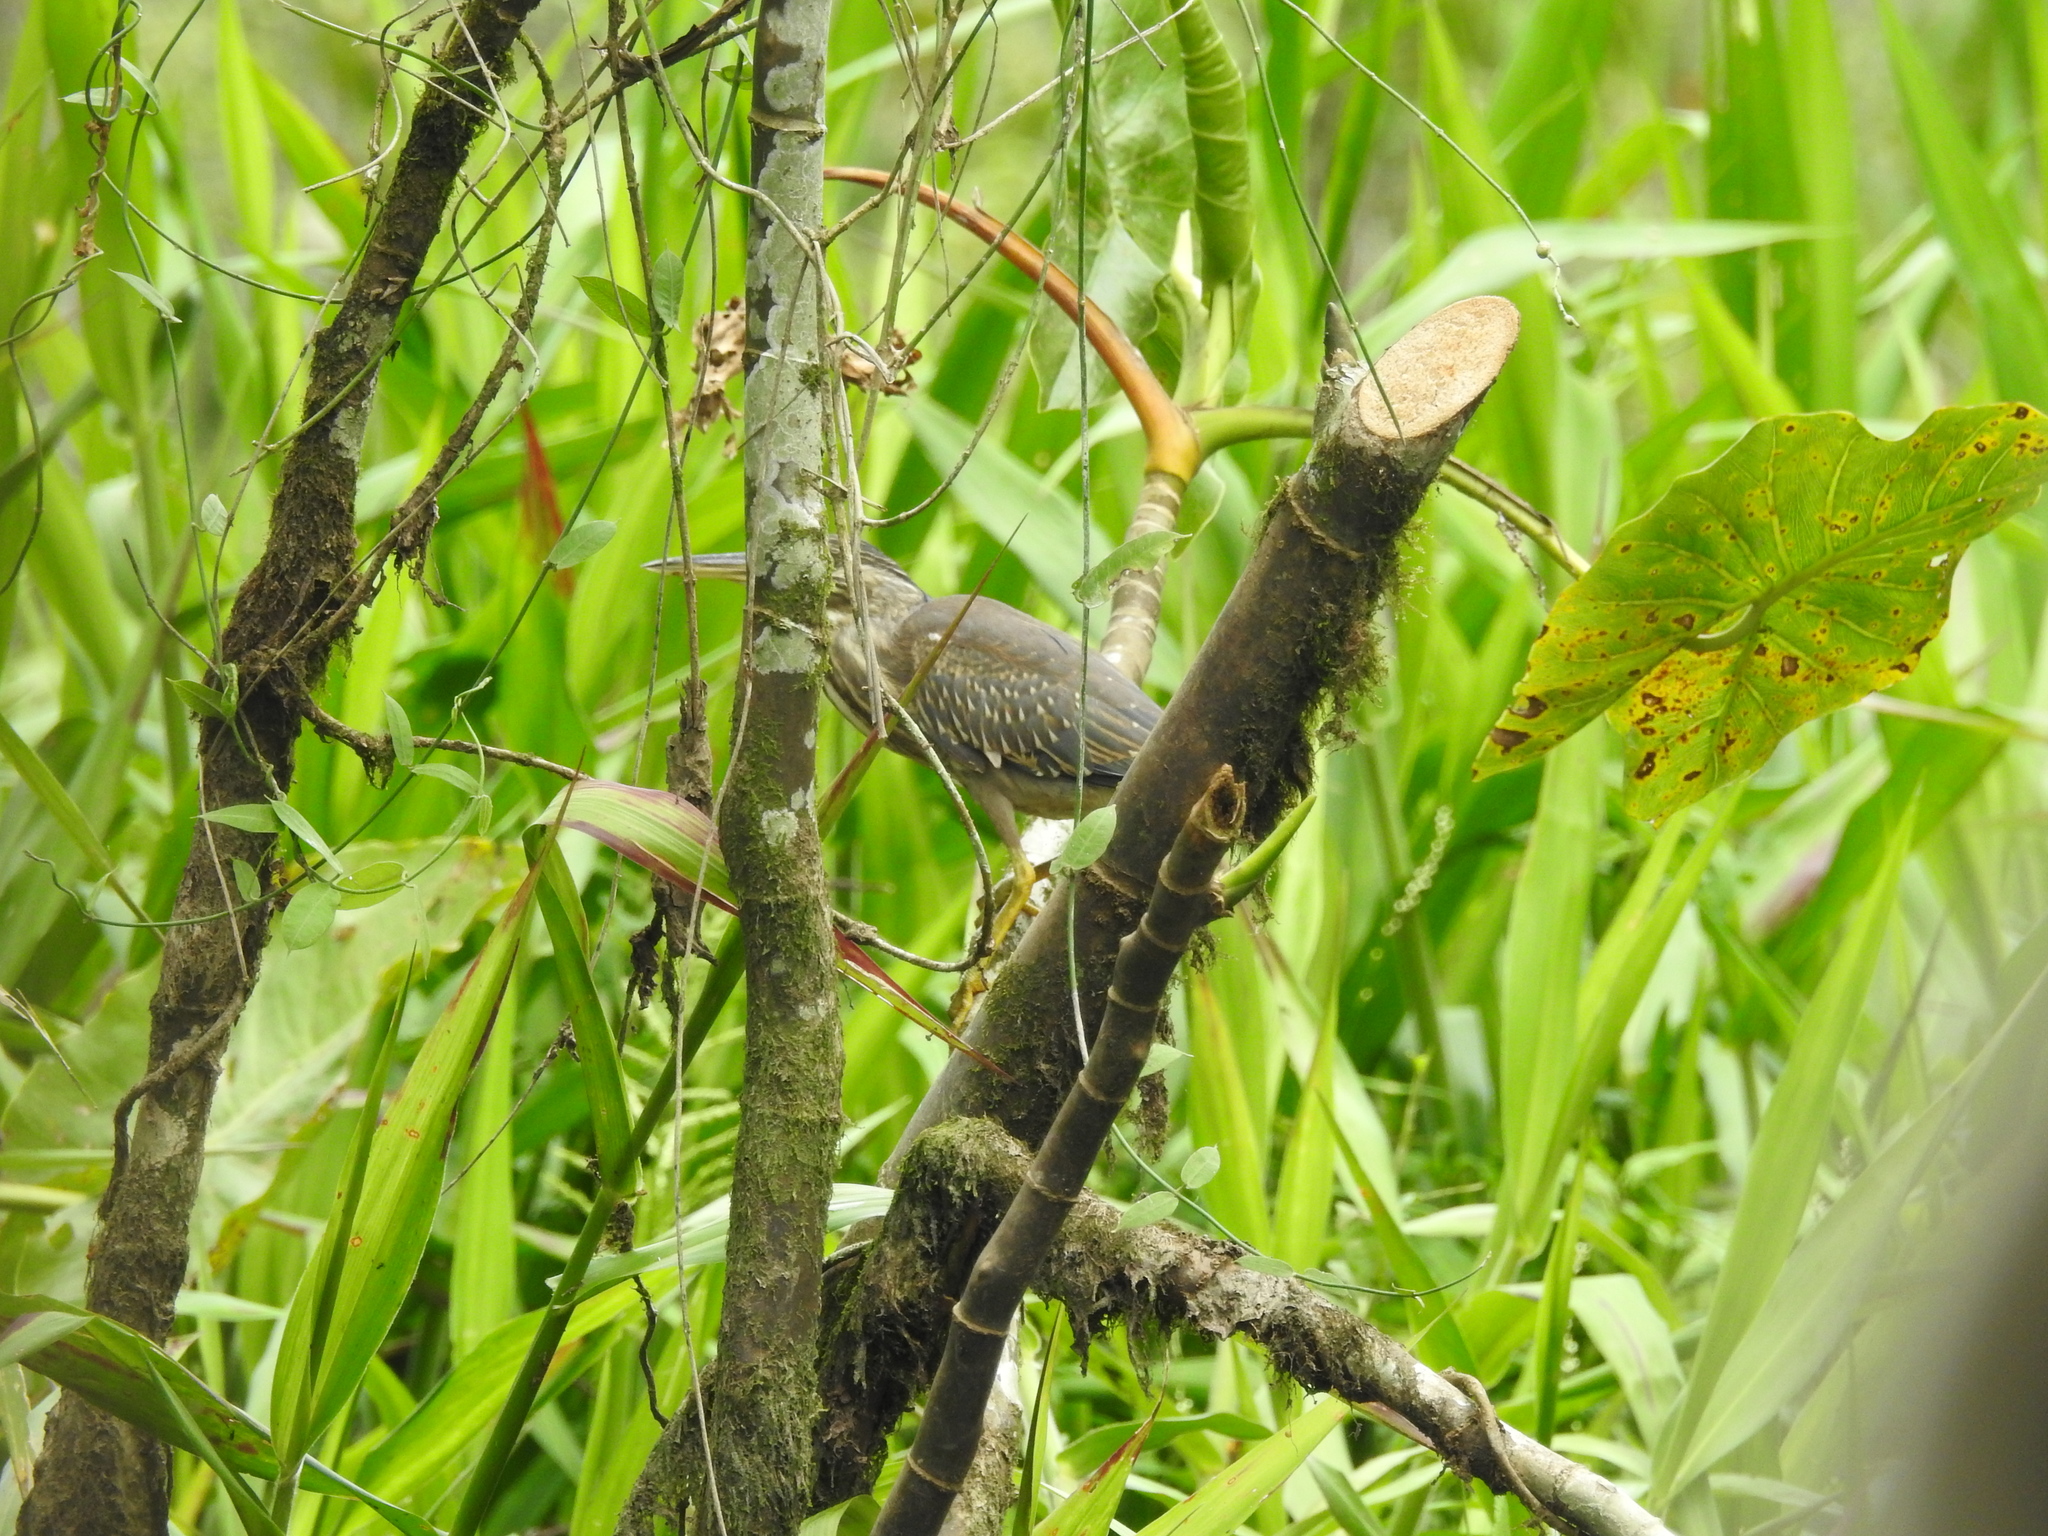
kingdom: Animalia
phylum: Chordata
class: Aves
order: Pelecaniformes
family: Ardeidae
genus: Butorides
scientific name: Butorides striata
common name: Striated heron
